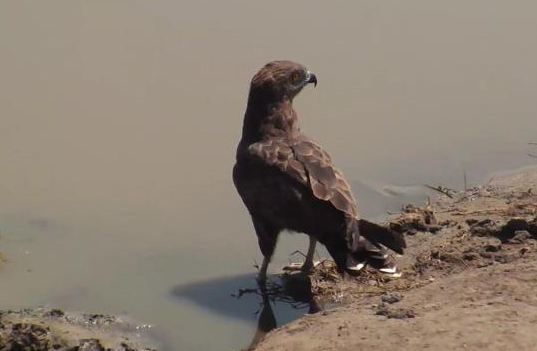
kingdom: Animalia
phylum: Chordata
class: Aves
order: Accipitriformes
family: Accipitridae
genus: Circaetus
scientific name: Circaetus cinereus
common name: Brown snake eagle
